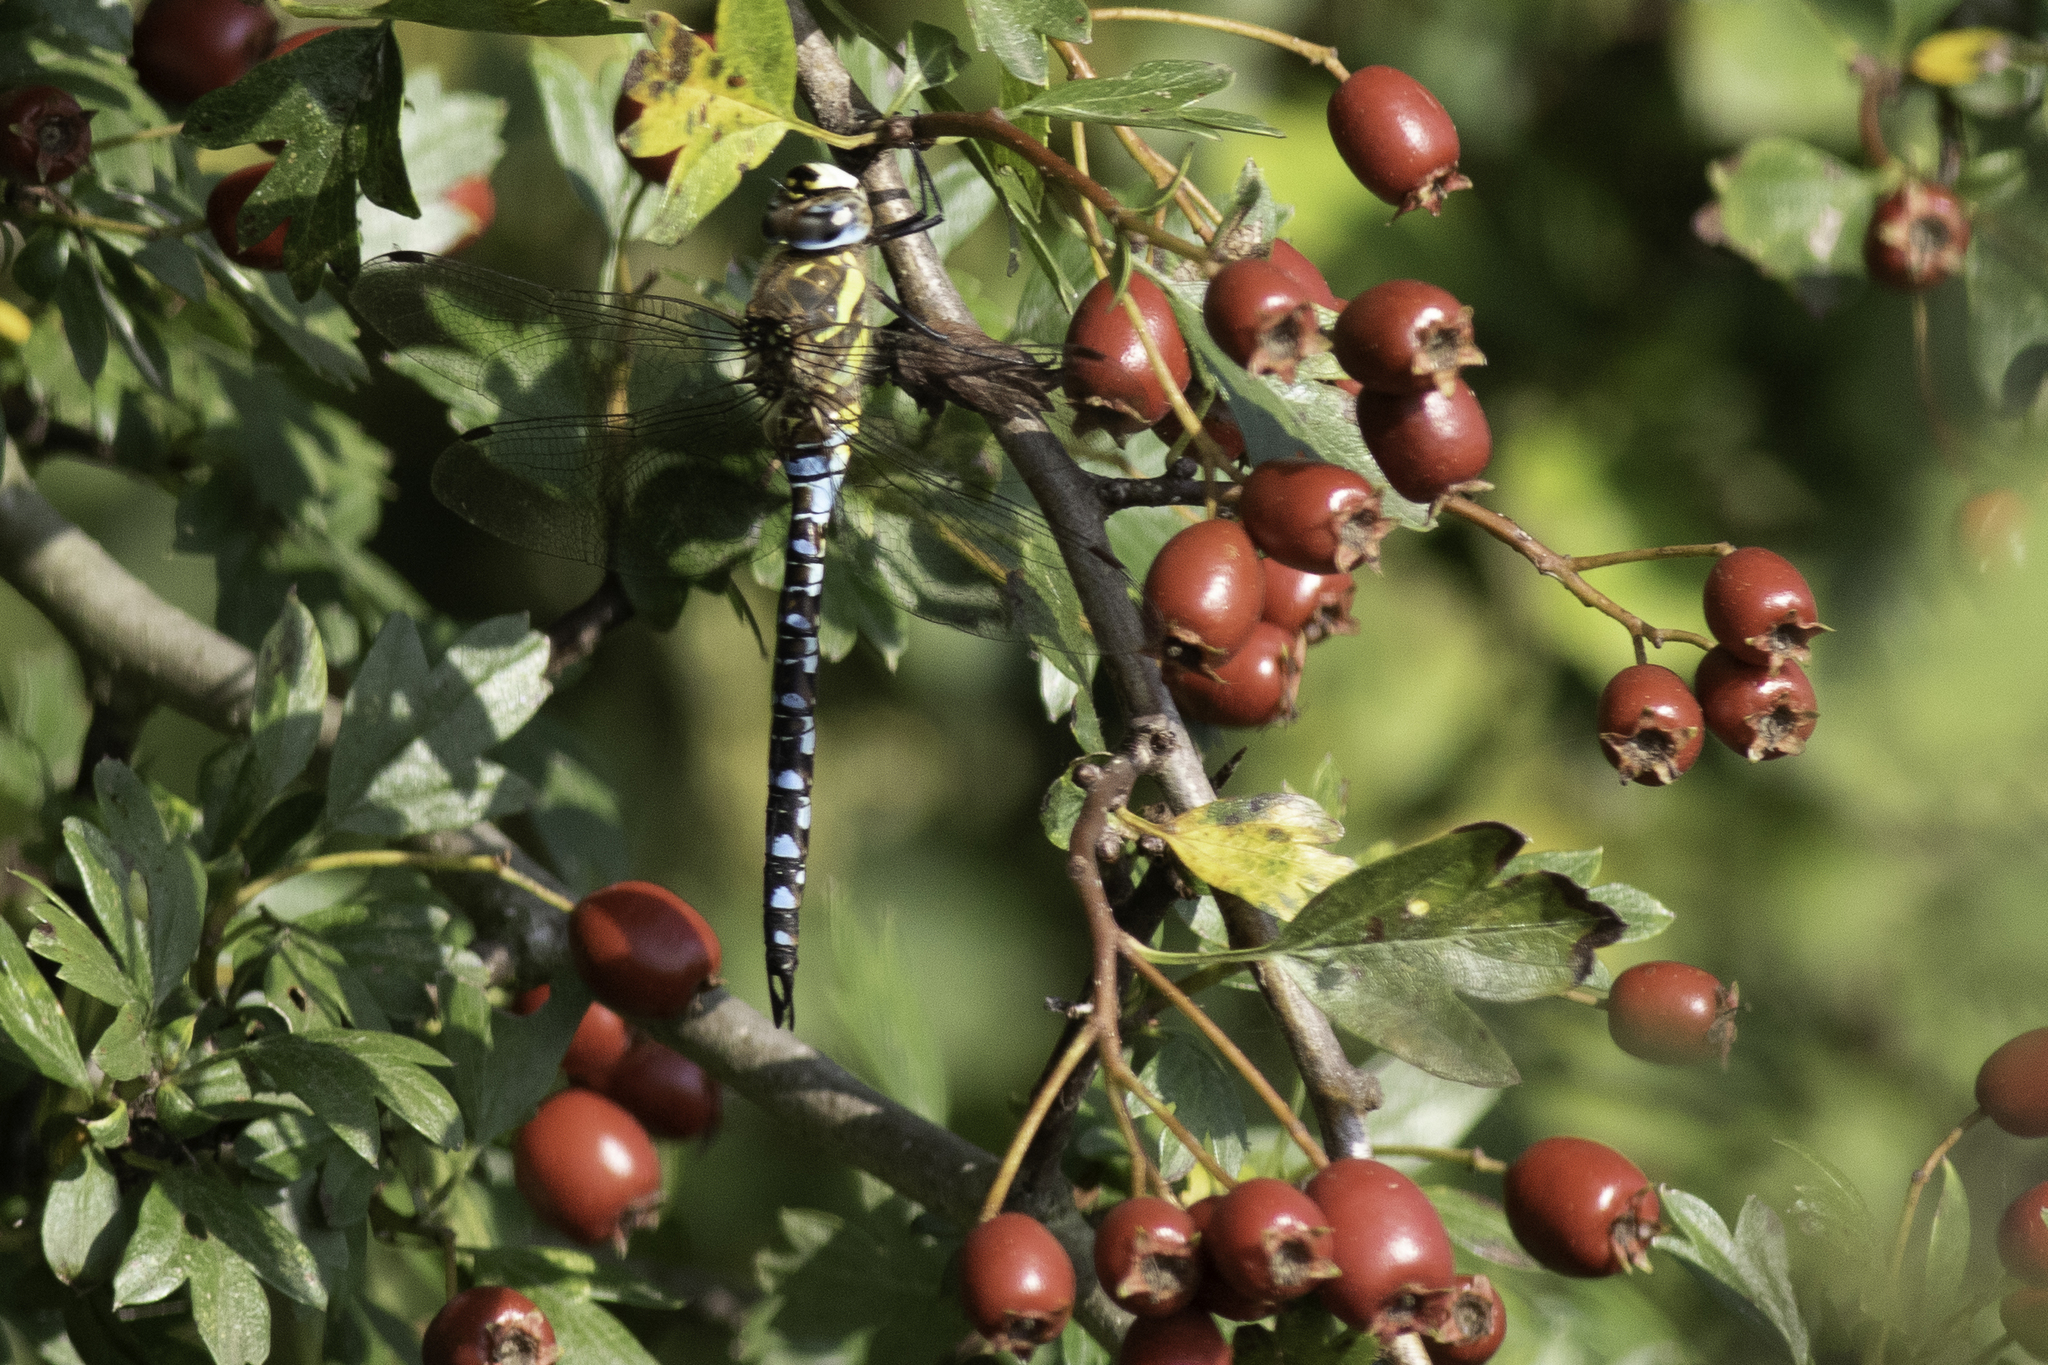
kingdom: Animalia
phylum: Arthropoda
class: Insecta
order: Odonata
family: Aeshnidae
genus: Aeshna
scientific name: Aeshna mixta
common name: Migrant hawker
